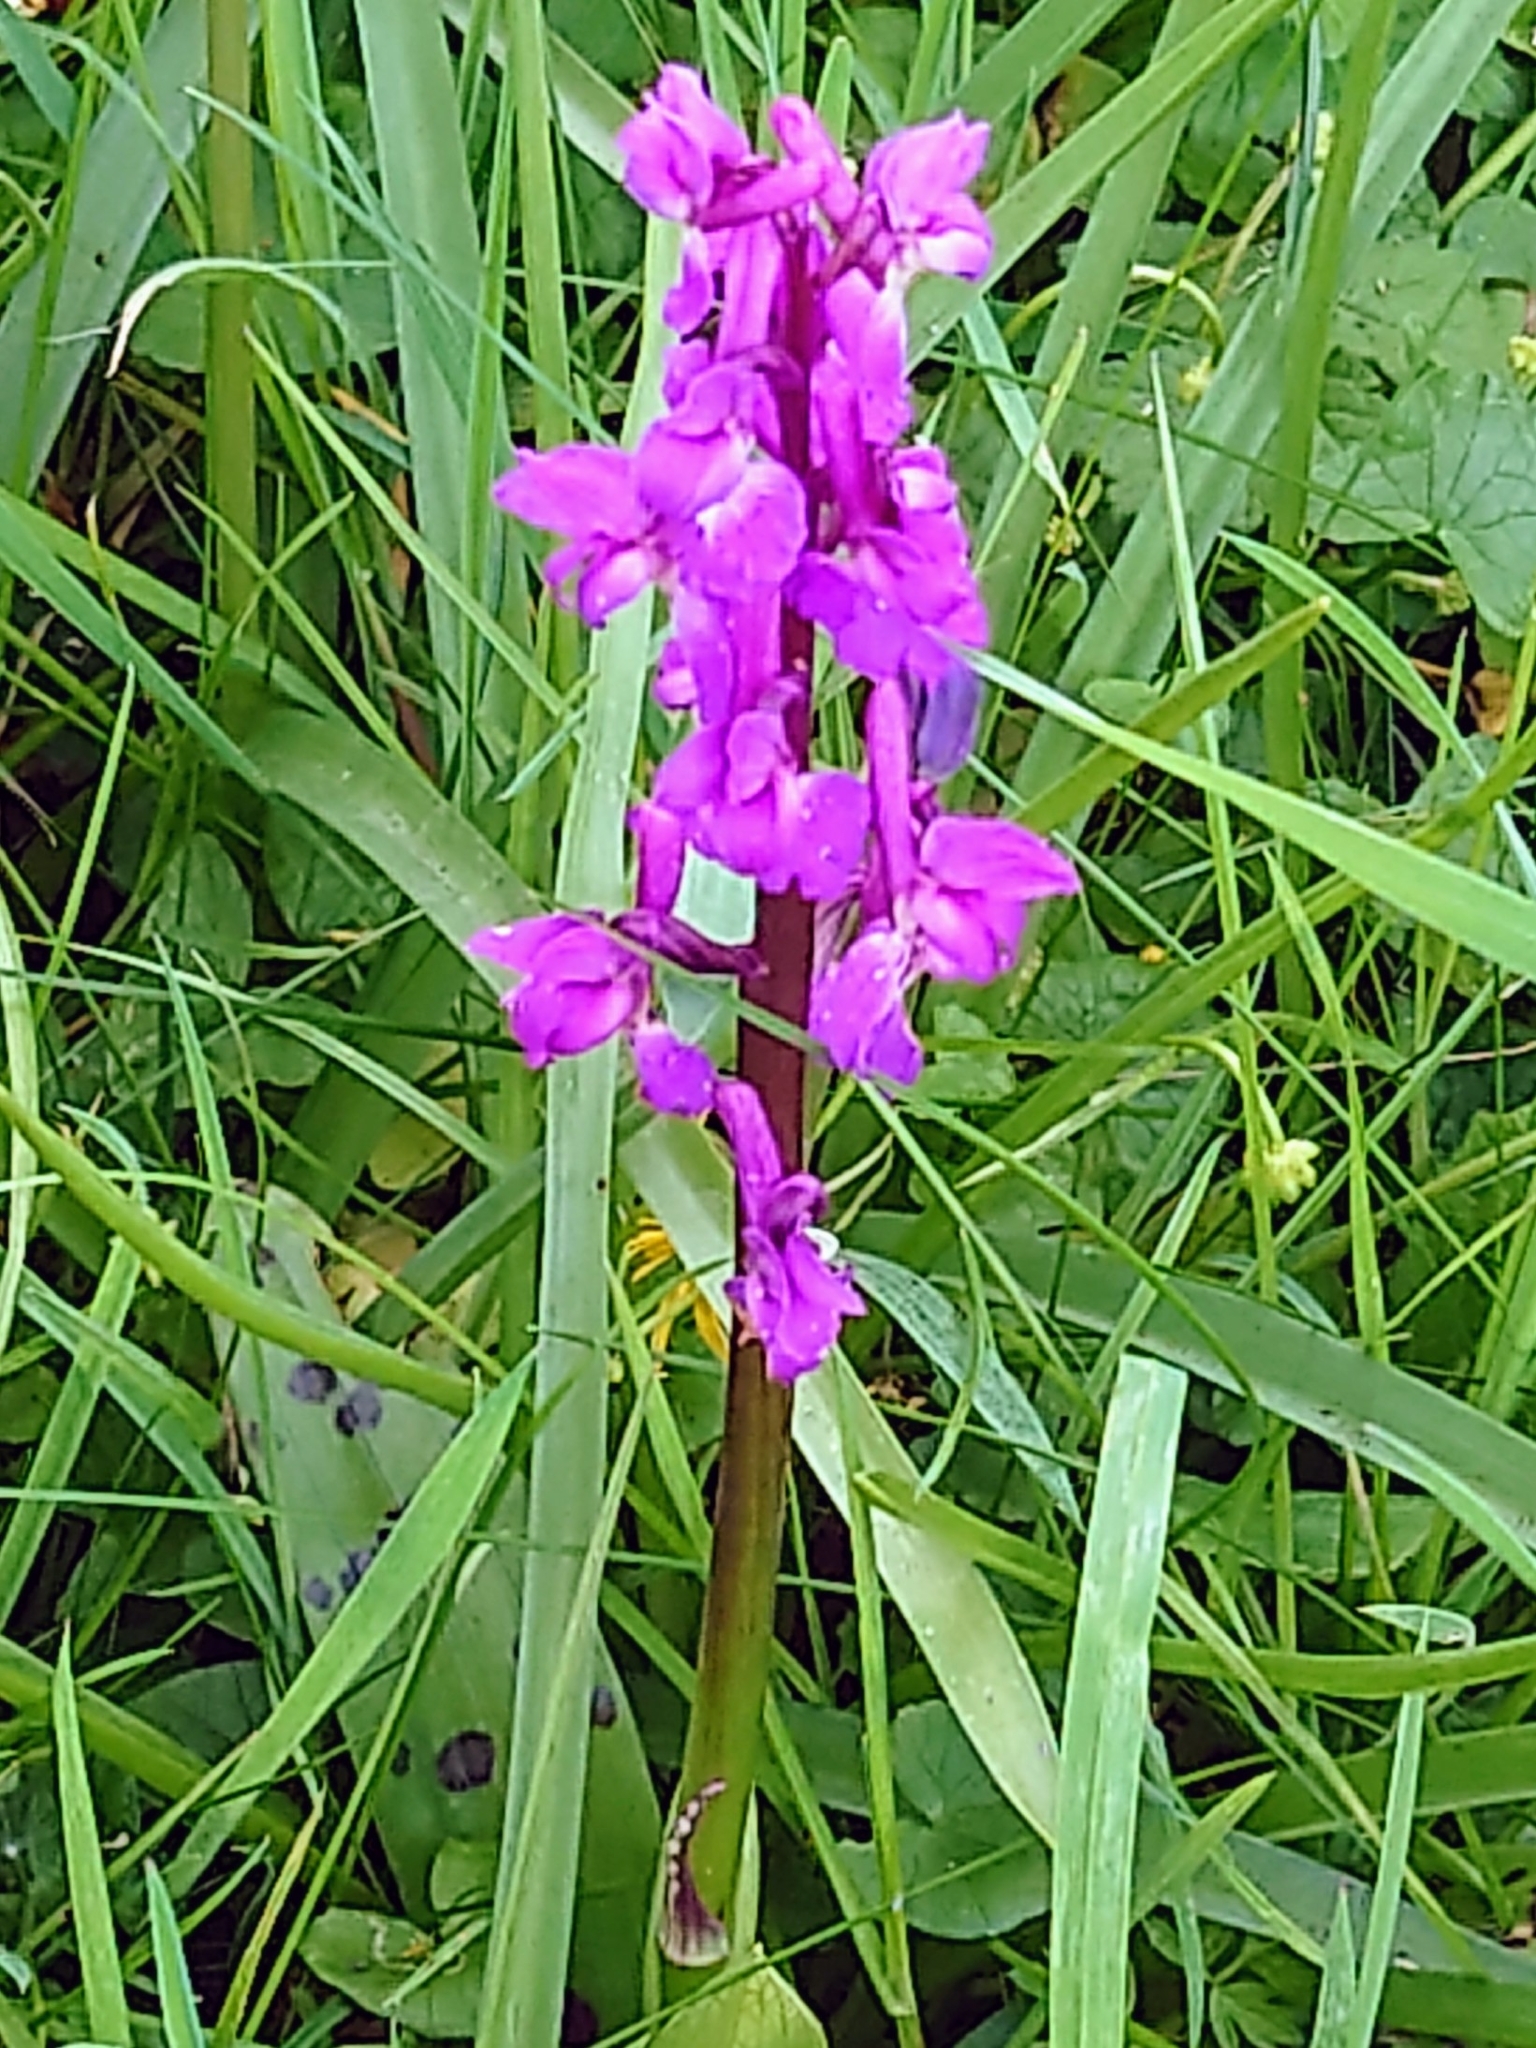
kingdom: Plantae
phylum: Tracheophyta
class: Liliopsida
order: Asparagales
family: Orchidaceae
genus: Orchis
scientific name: Orchis mascula
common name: Early-purple orchid
